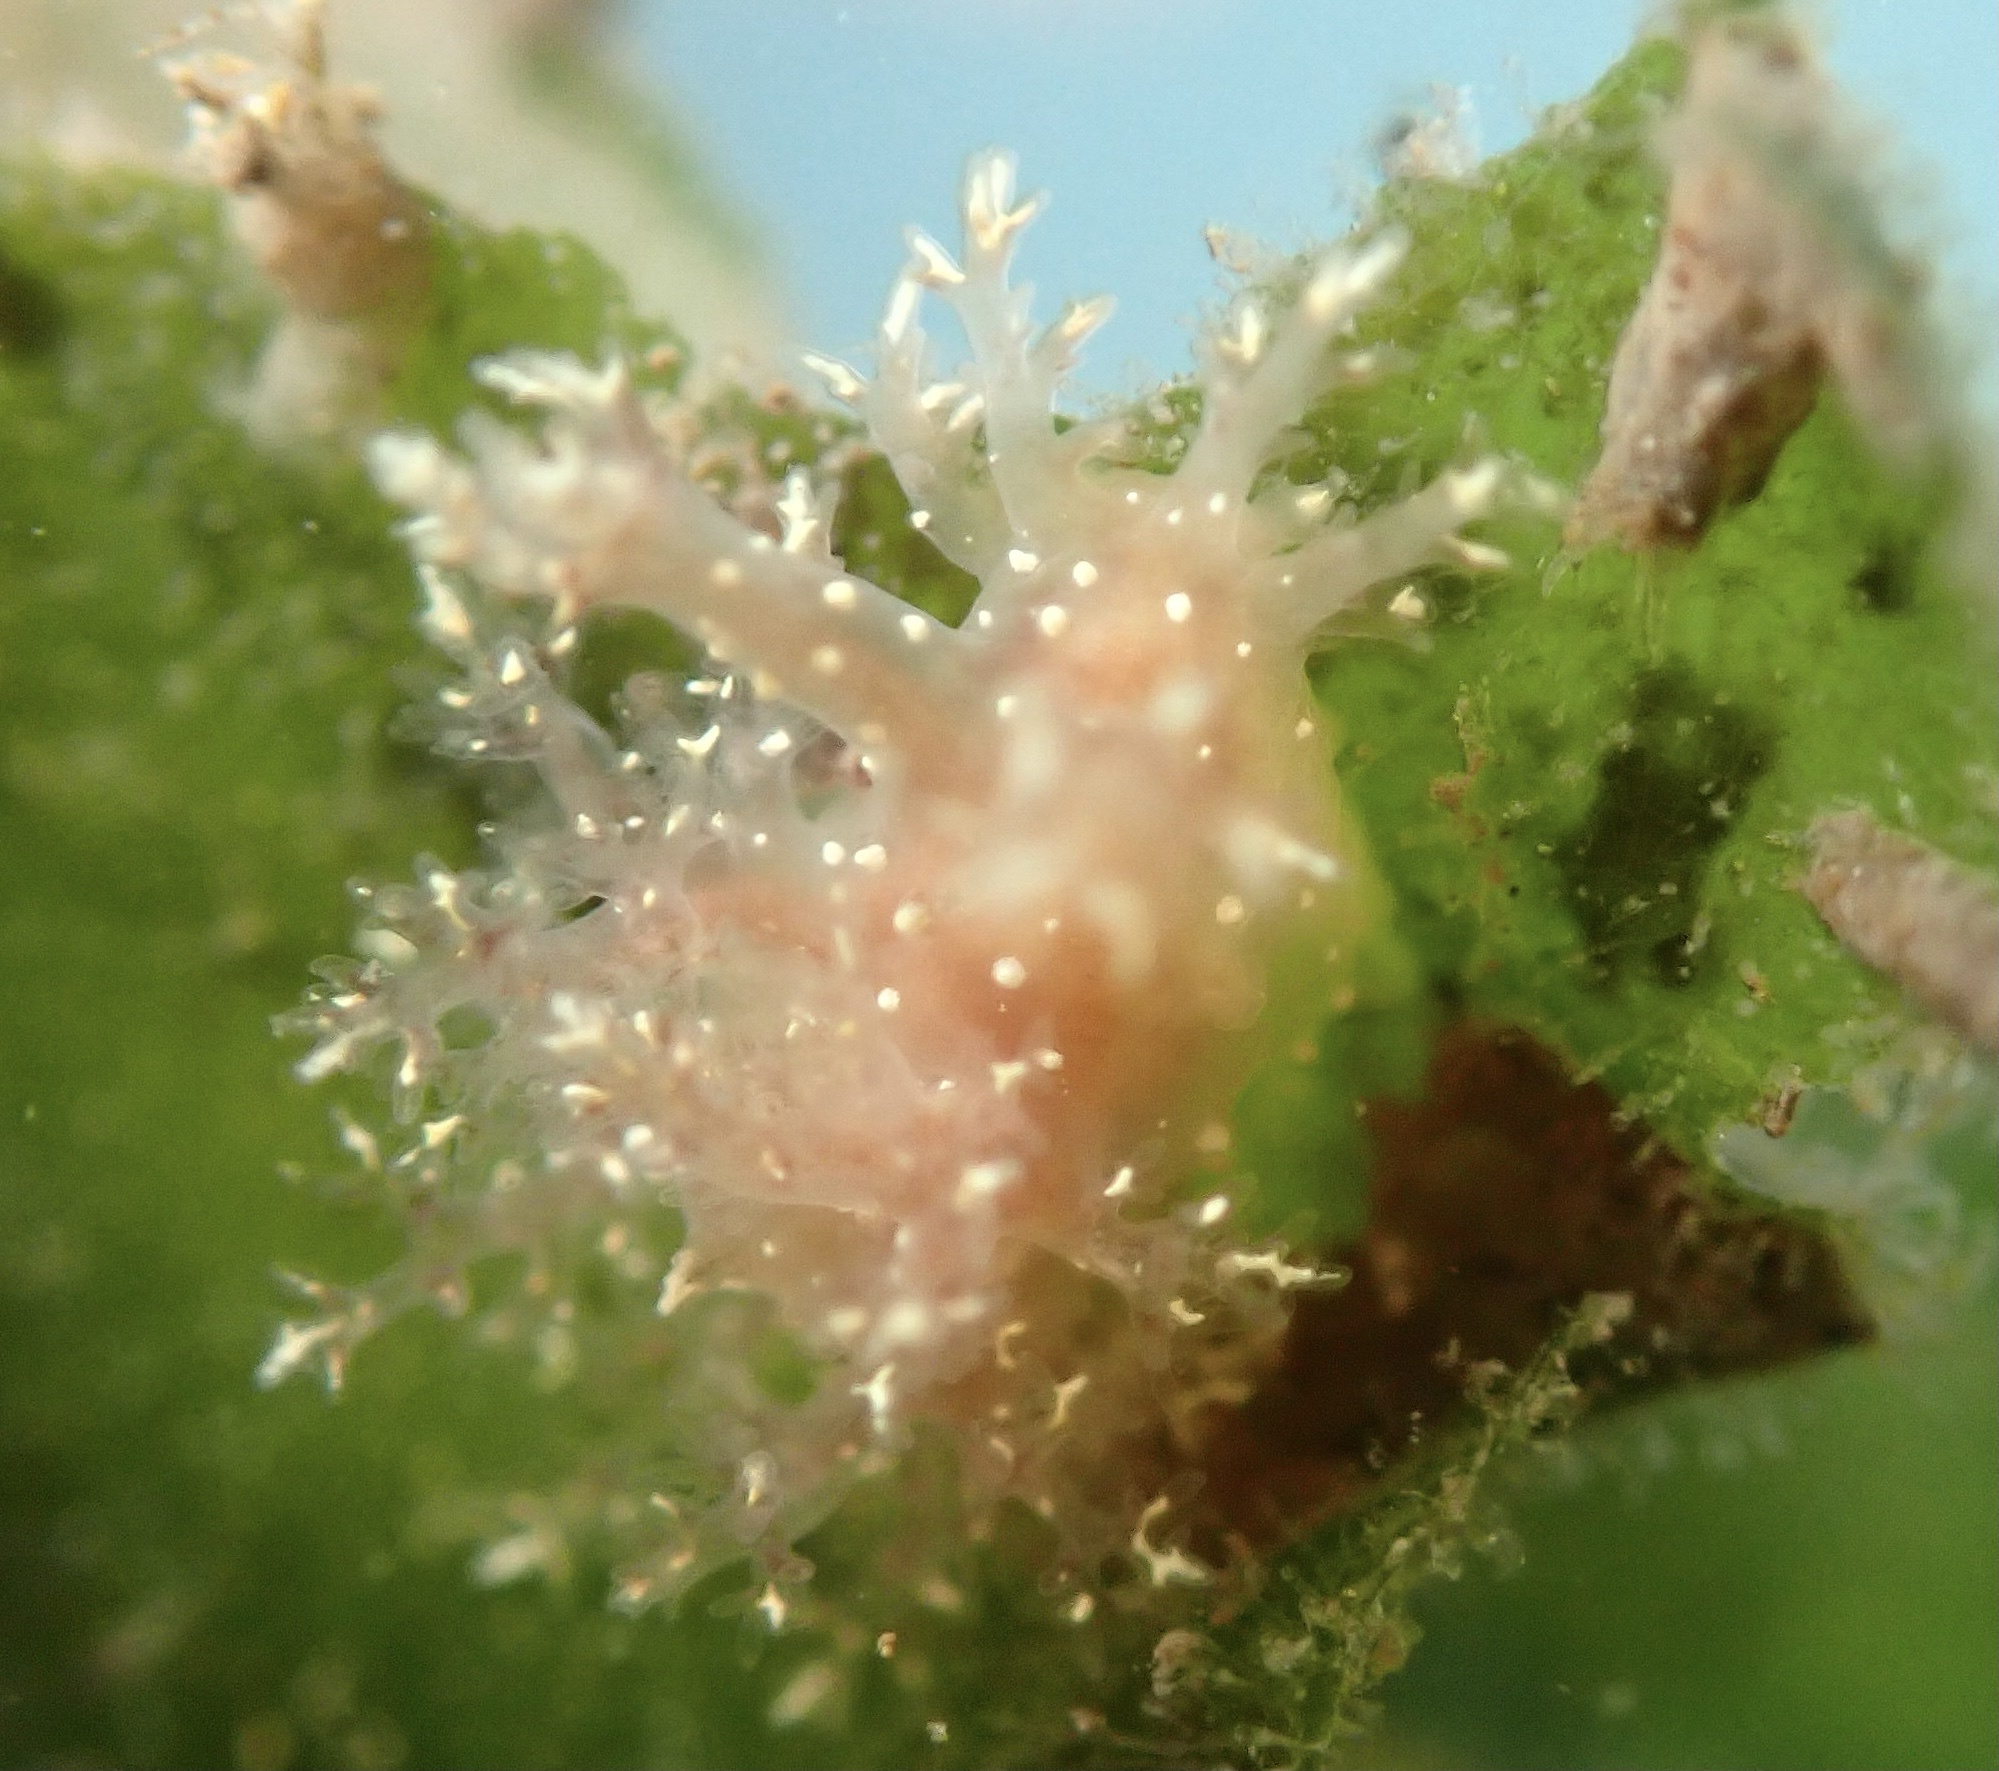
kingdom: Animalia
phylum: Mollusca
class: Gastropoda
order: Nudibranchia
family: Dendronotidae
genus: Dendronotus
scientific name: Dendronotus venustus
